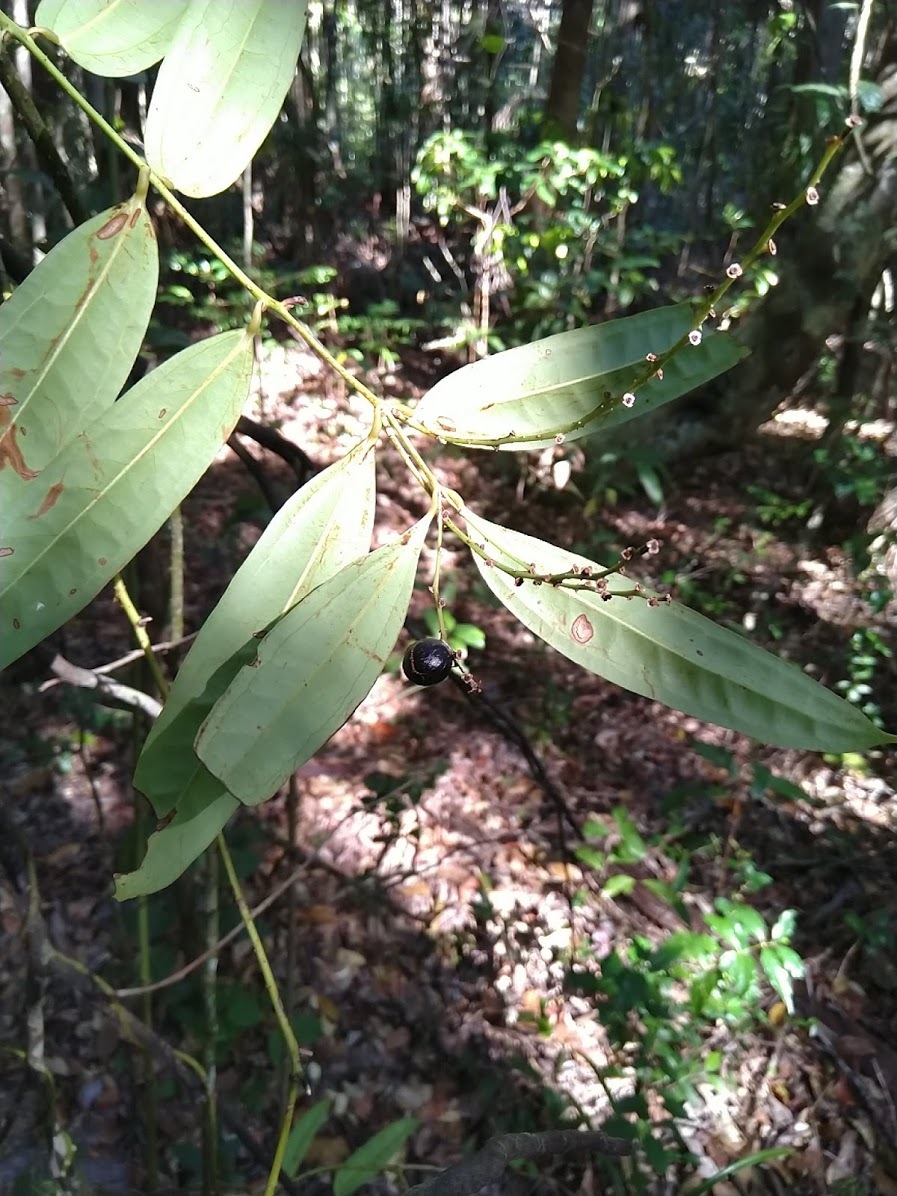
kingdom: Plantae
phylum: Tracheophyta
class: Liliopsida
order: Liliales
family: Ripogonaceae
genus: Ripogonum
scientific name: Ripogonum discolor
